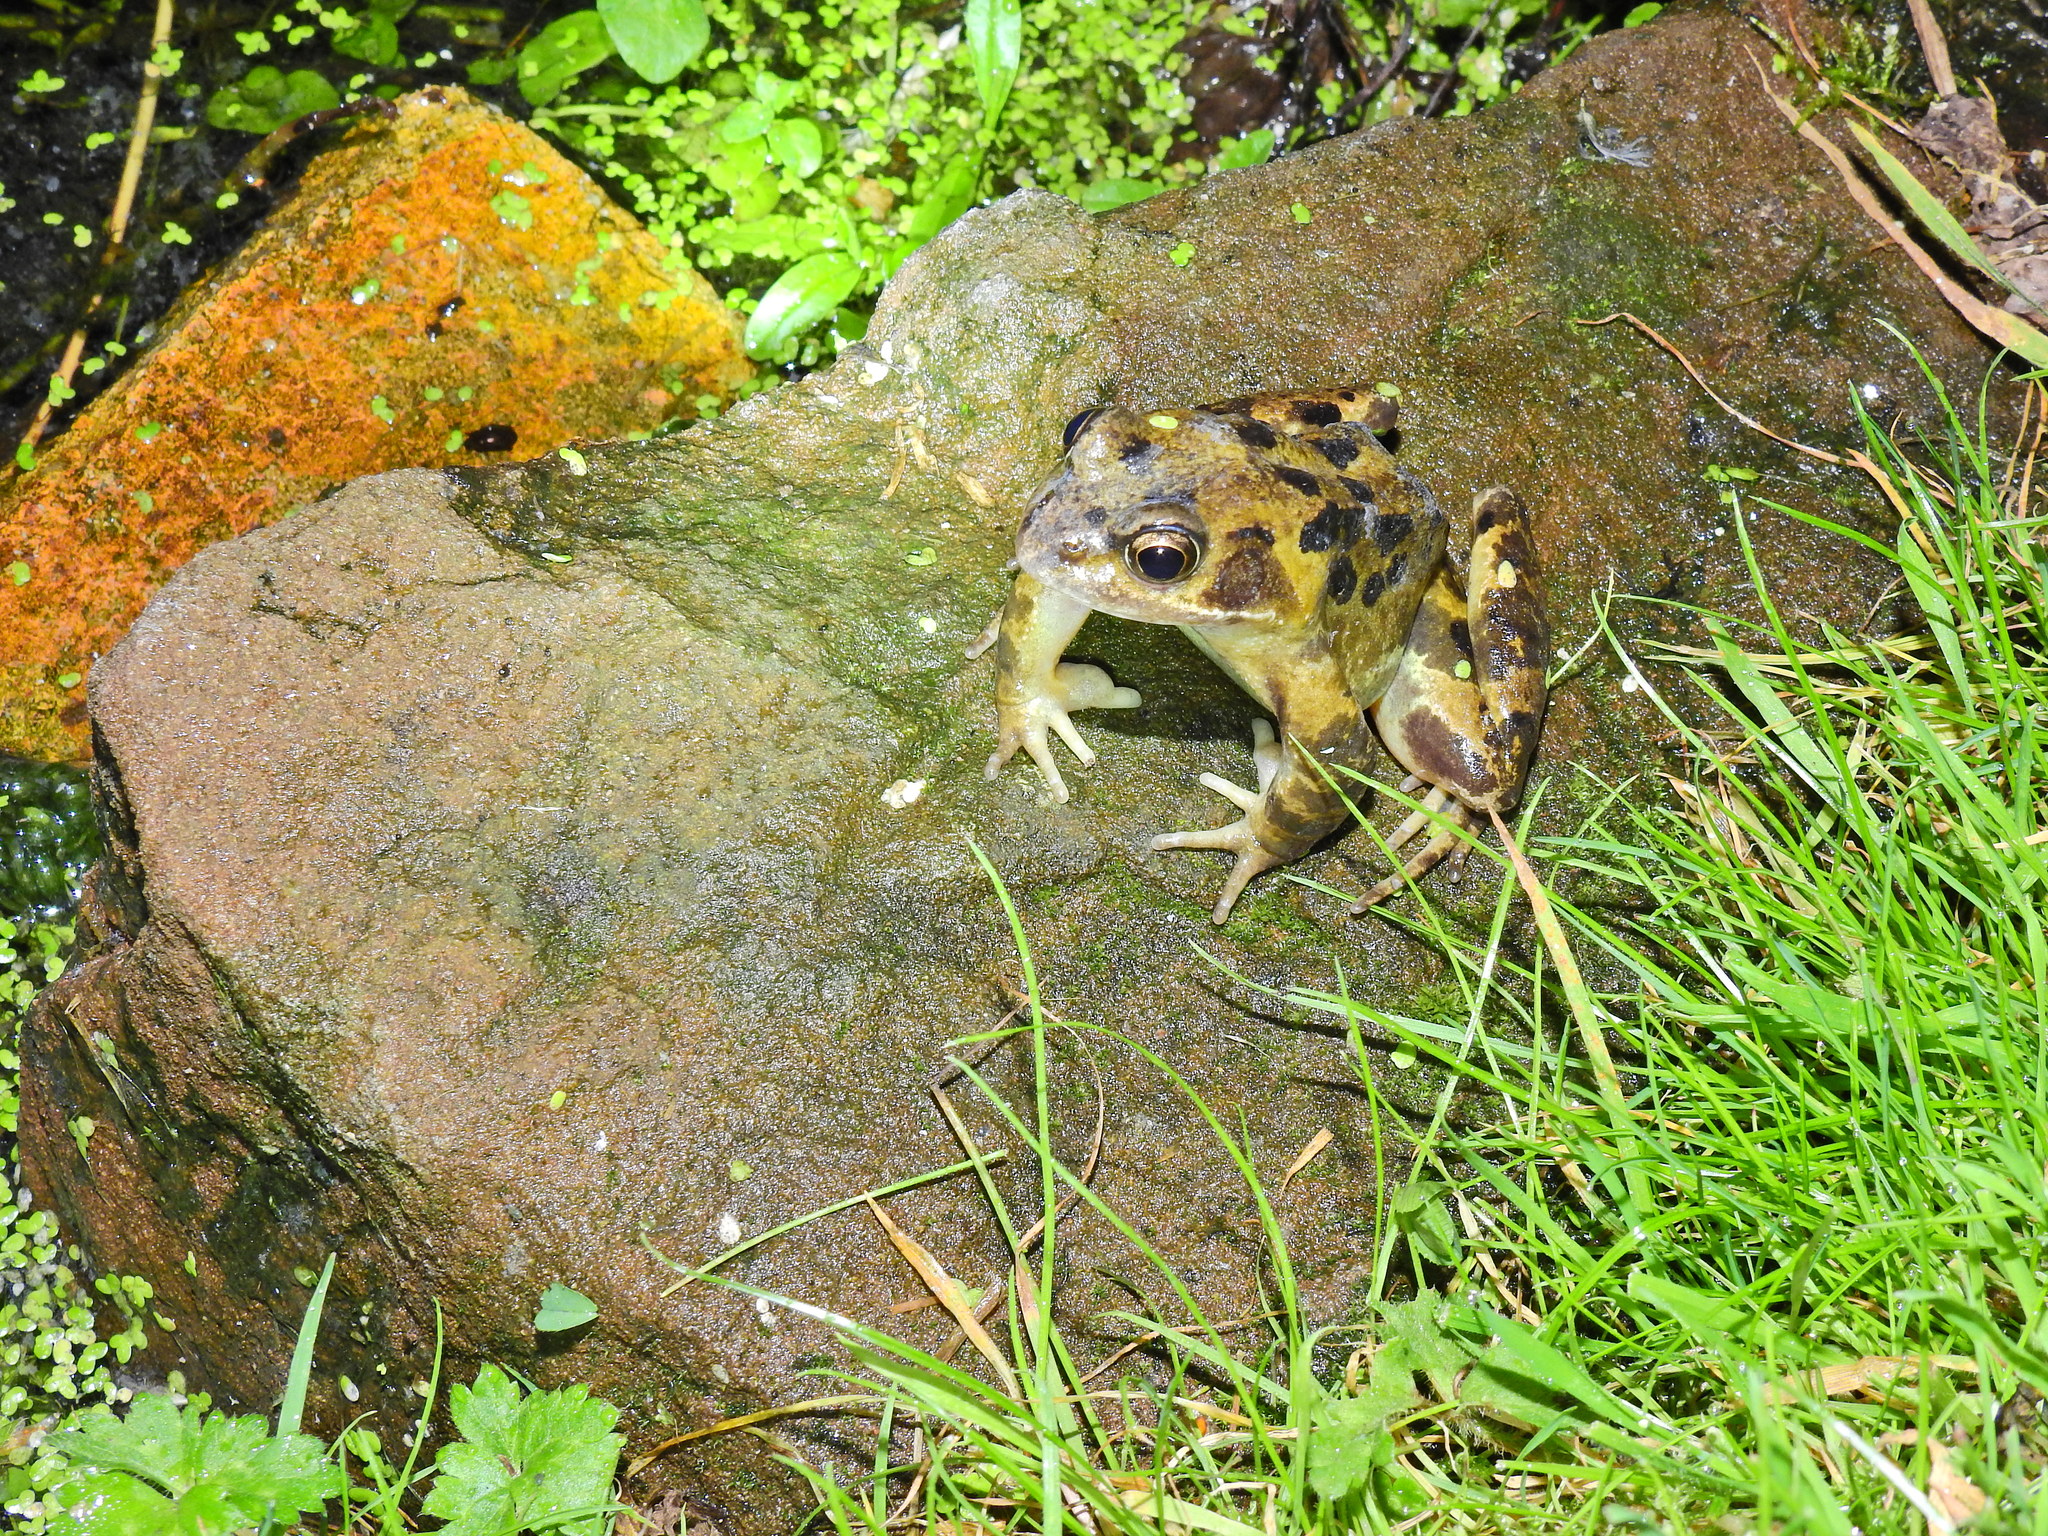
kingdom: Animalia
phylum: Chordata
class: Amphibia
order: Anura
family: Ranidae
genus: Rana
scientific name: Rana temporaria
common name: Common frog
